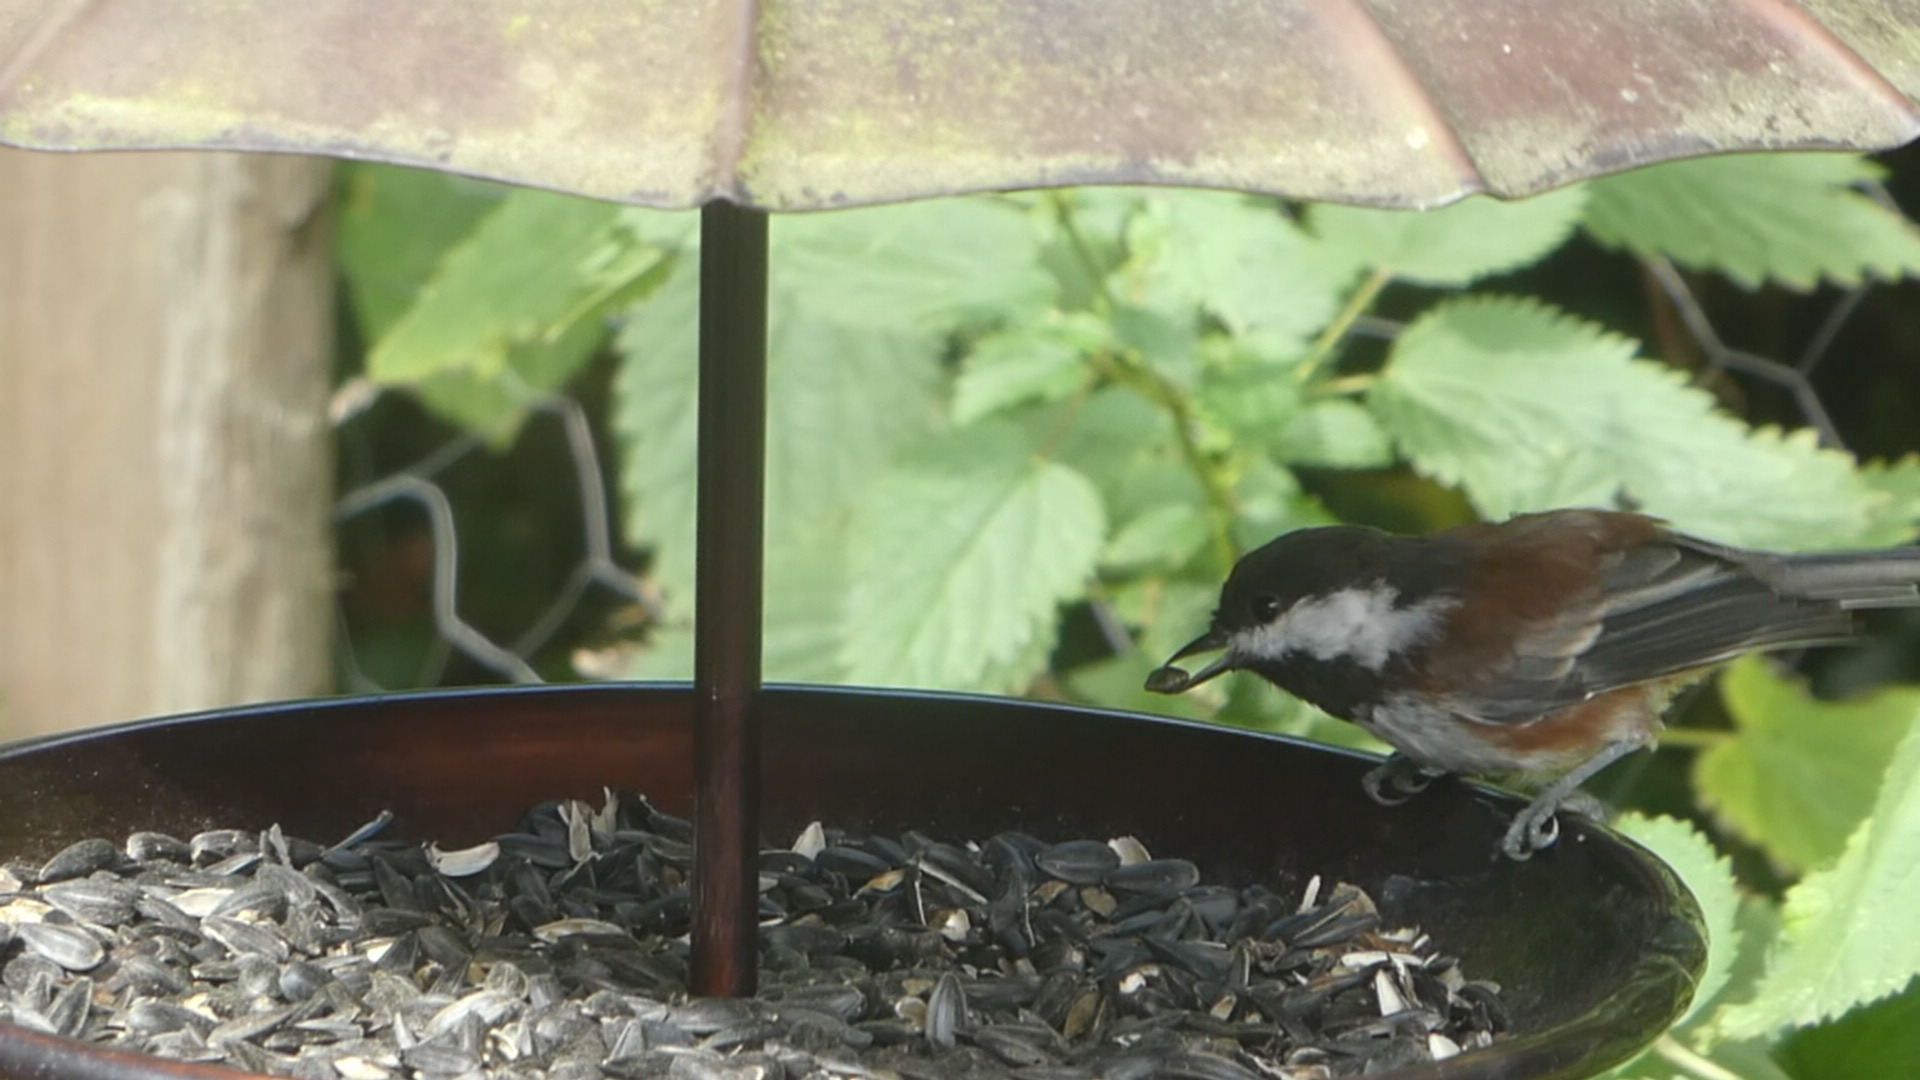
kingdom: Animalia
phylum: Chordata
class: Aves
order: Passeriformes
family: Paridae
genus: Poecile
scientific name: Poecile rufescens
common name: Chestnut-backed chickadee
